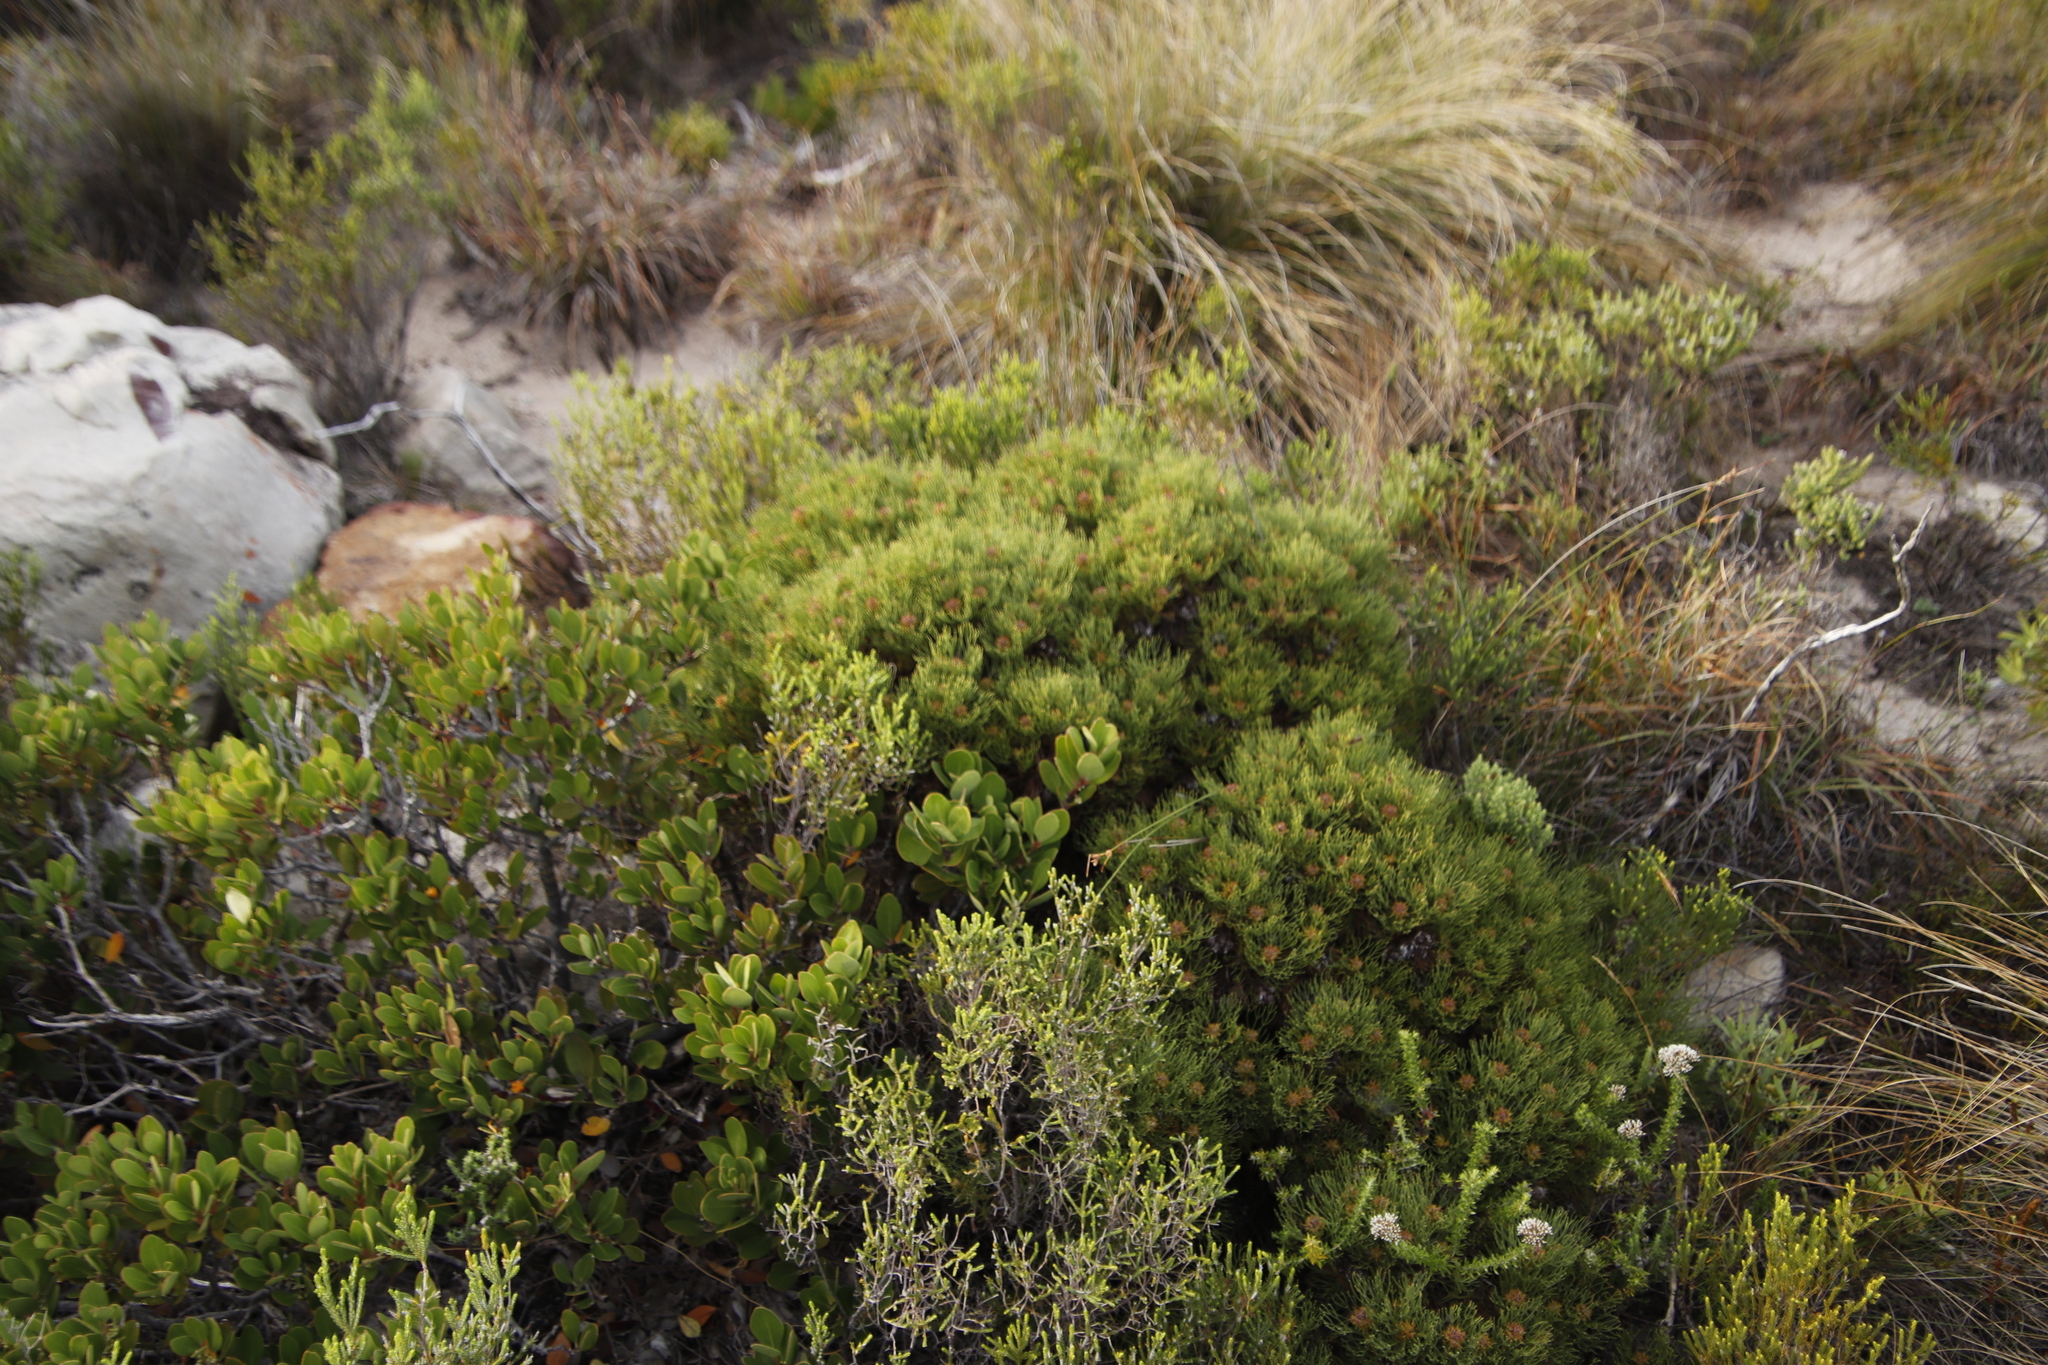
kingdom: Plantae
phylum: Tracheophyta
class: Magnoliopsida
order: Proteales
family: Proteaceae
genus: Serruria
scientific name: Serruria ascendens
